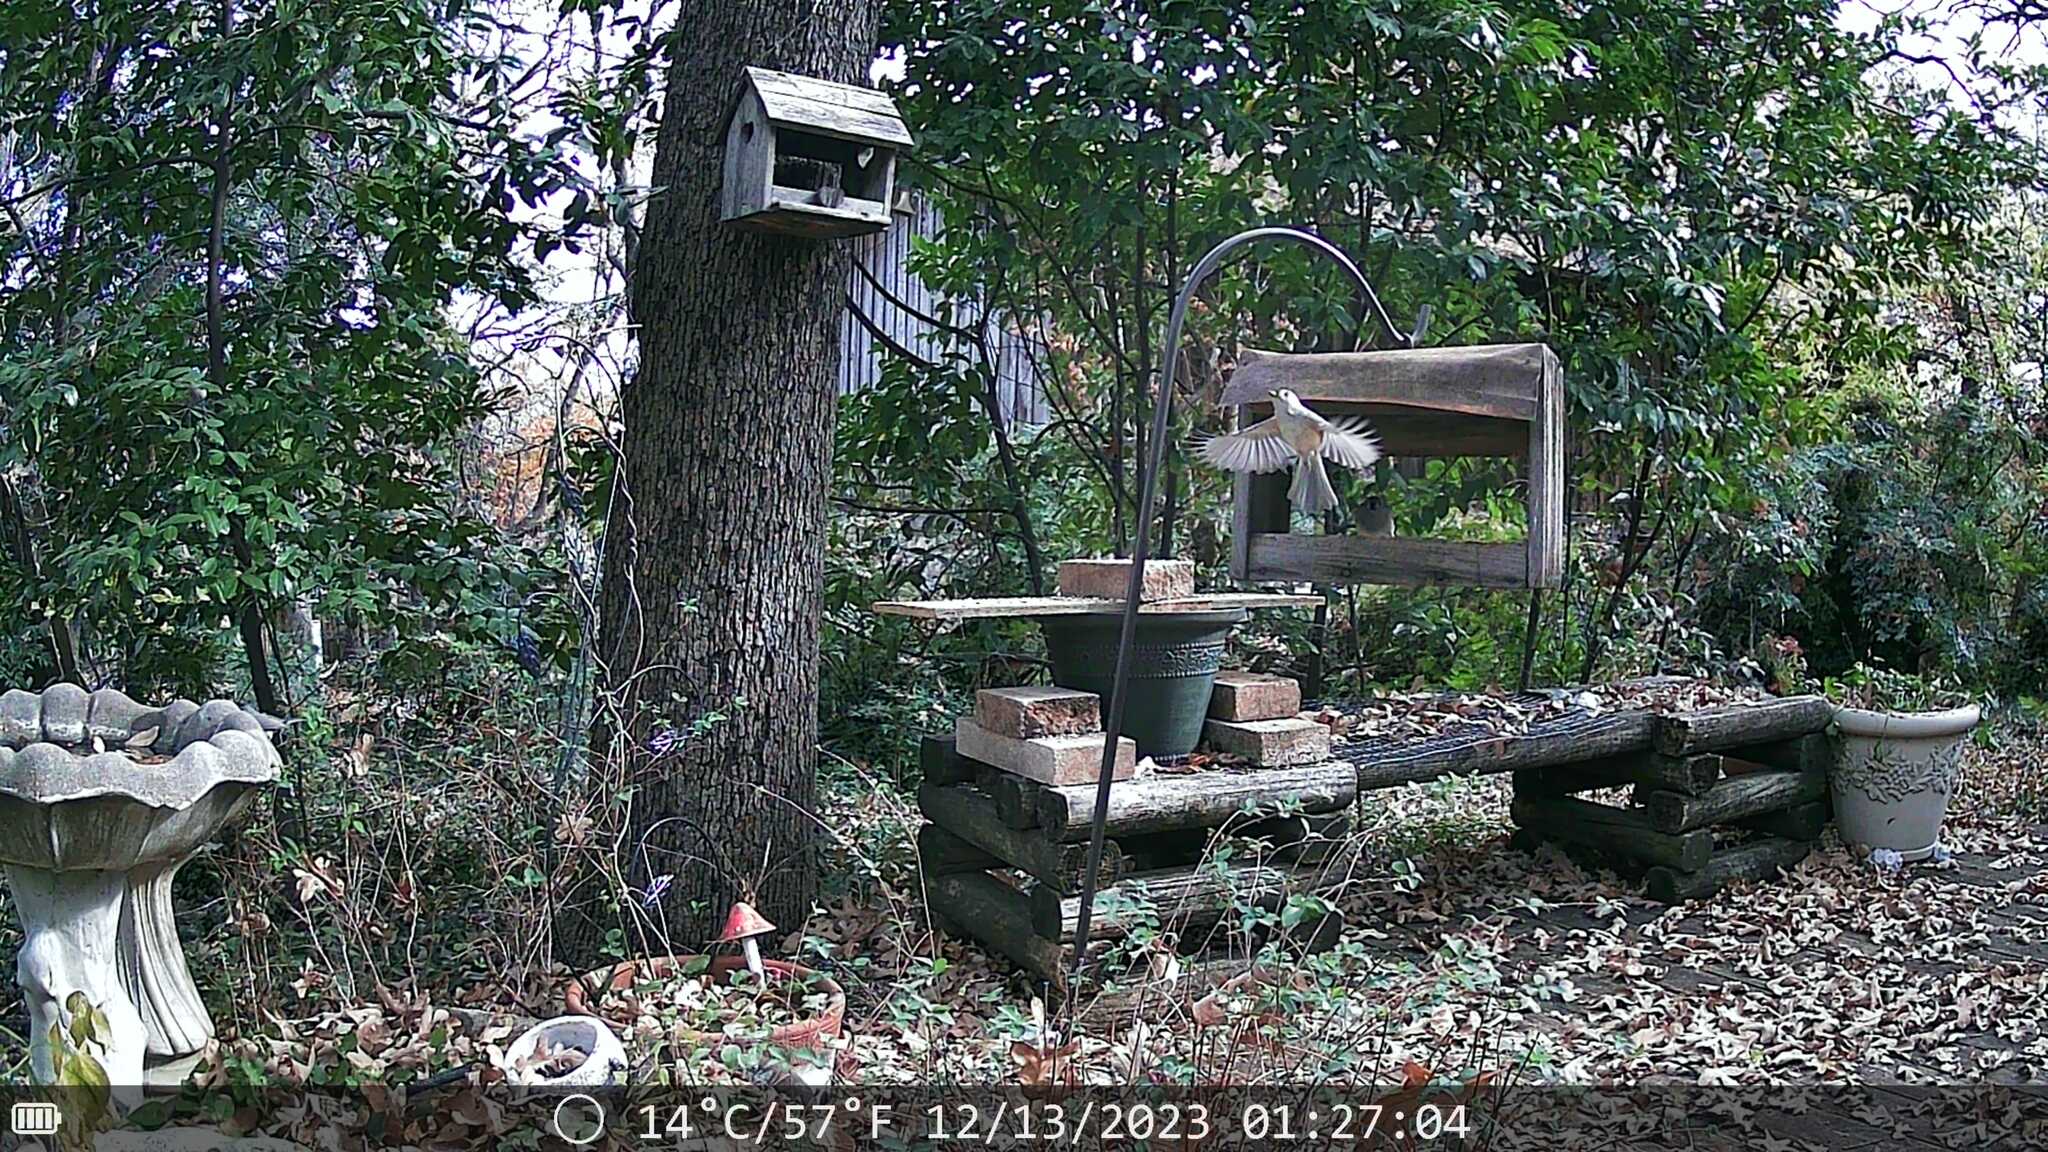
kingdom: Animalia
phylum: Chordata
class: Aves
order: Passeriformes
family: Paridae
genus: Baeolophus
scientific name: Baeolophus bicolor
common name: Tufted titmouse
